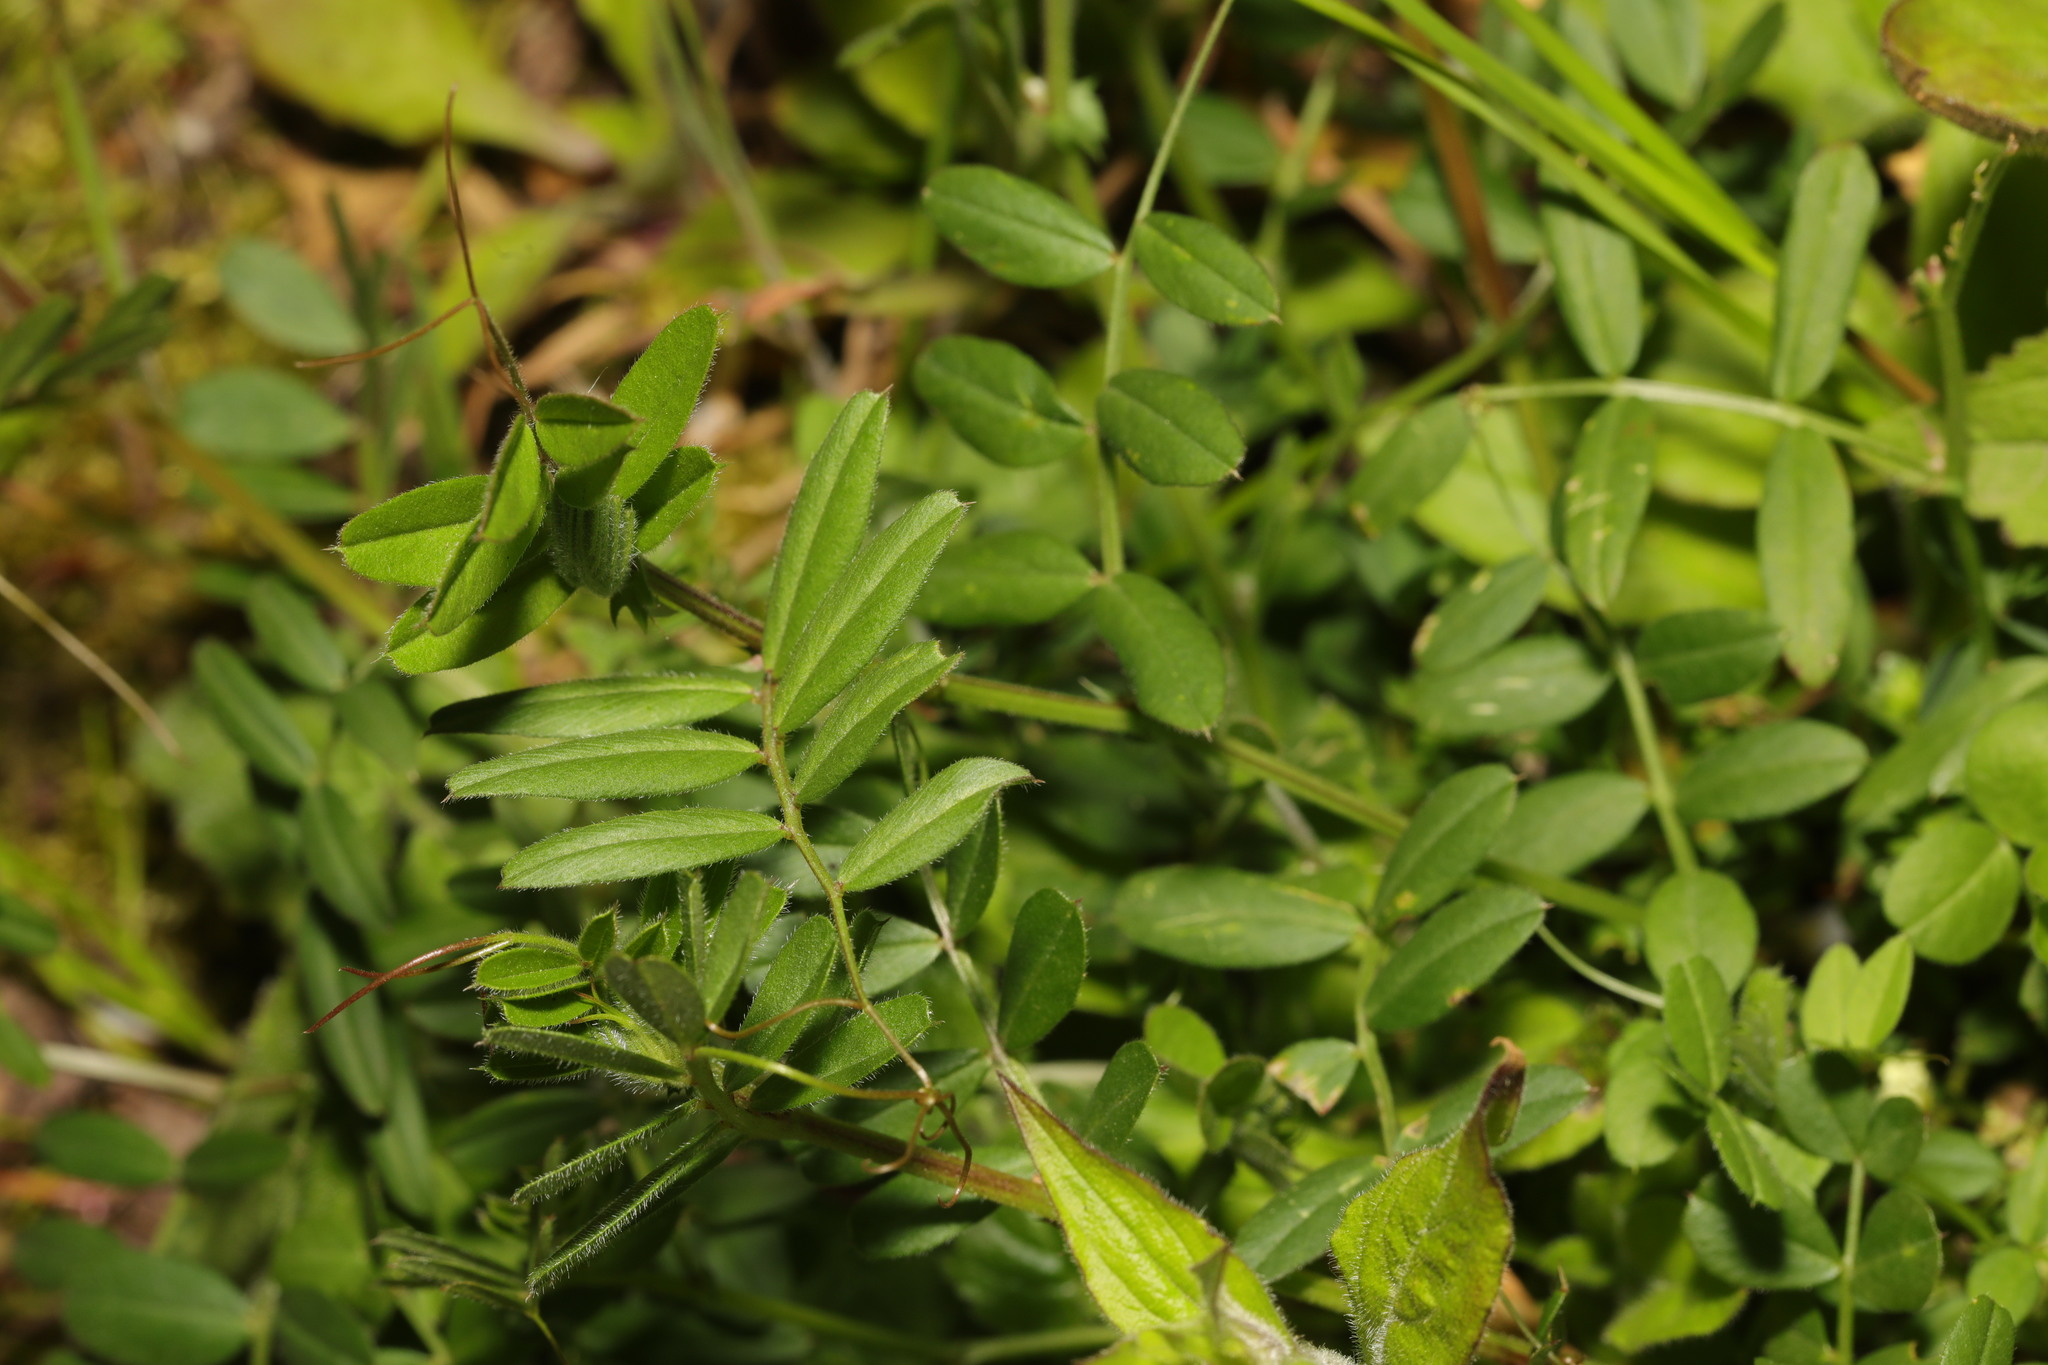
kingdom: Plantae
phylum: Tracheophyta
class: Magnoliopsida
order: Fabales
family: Fabaceae
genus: Vicia
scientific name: Vicia sepium
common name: Bush vetch
